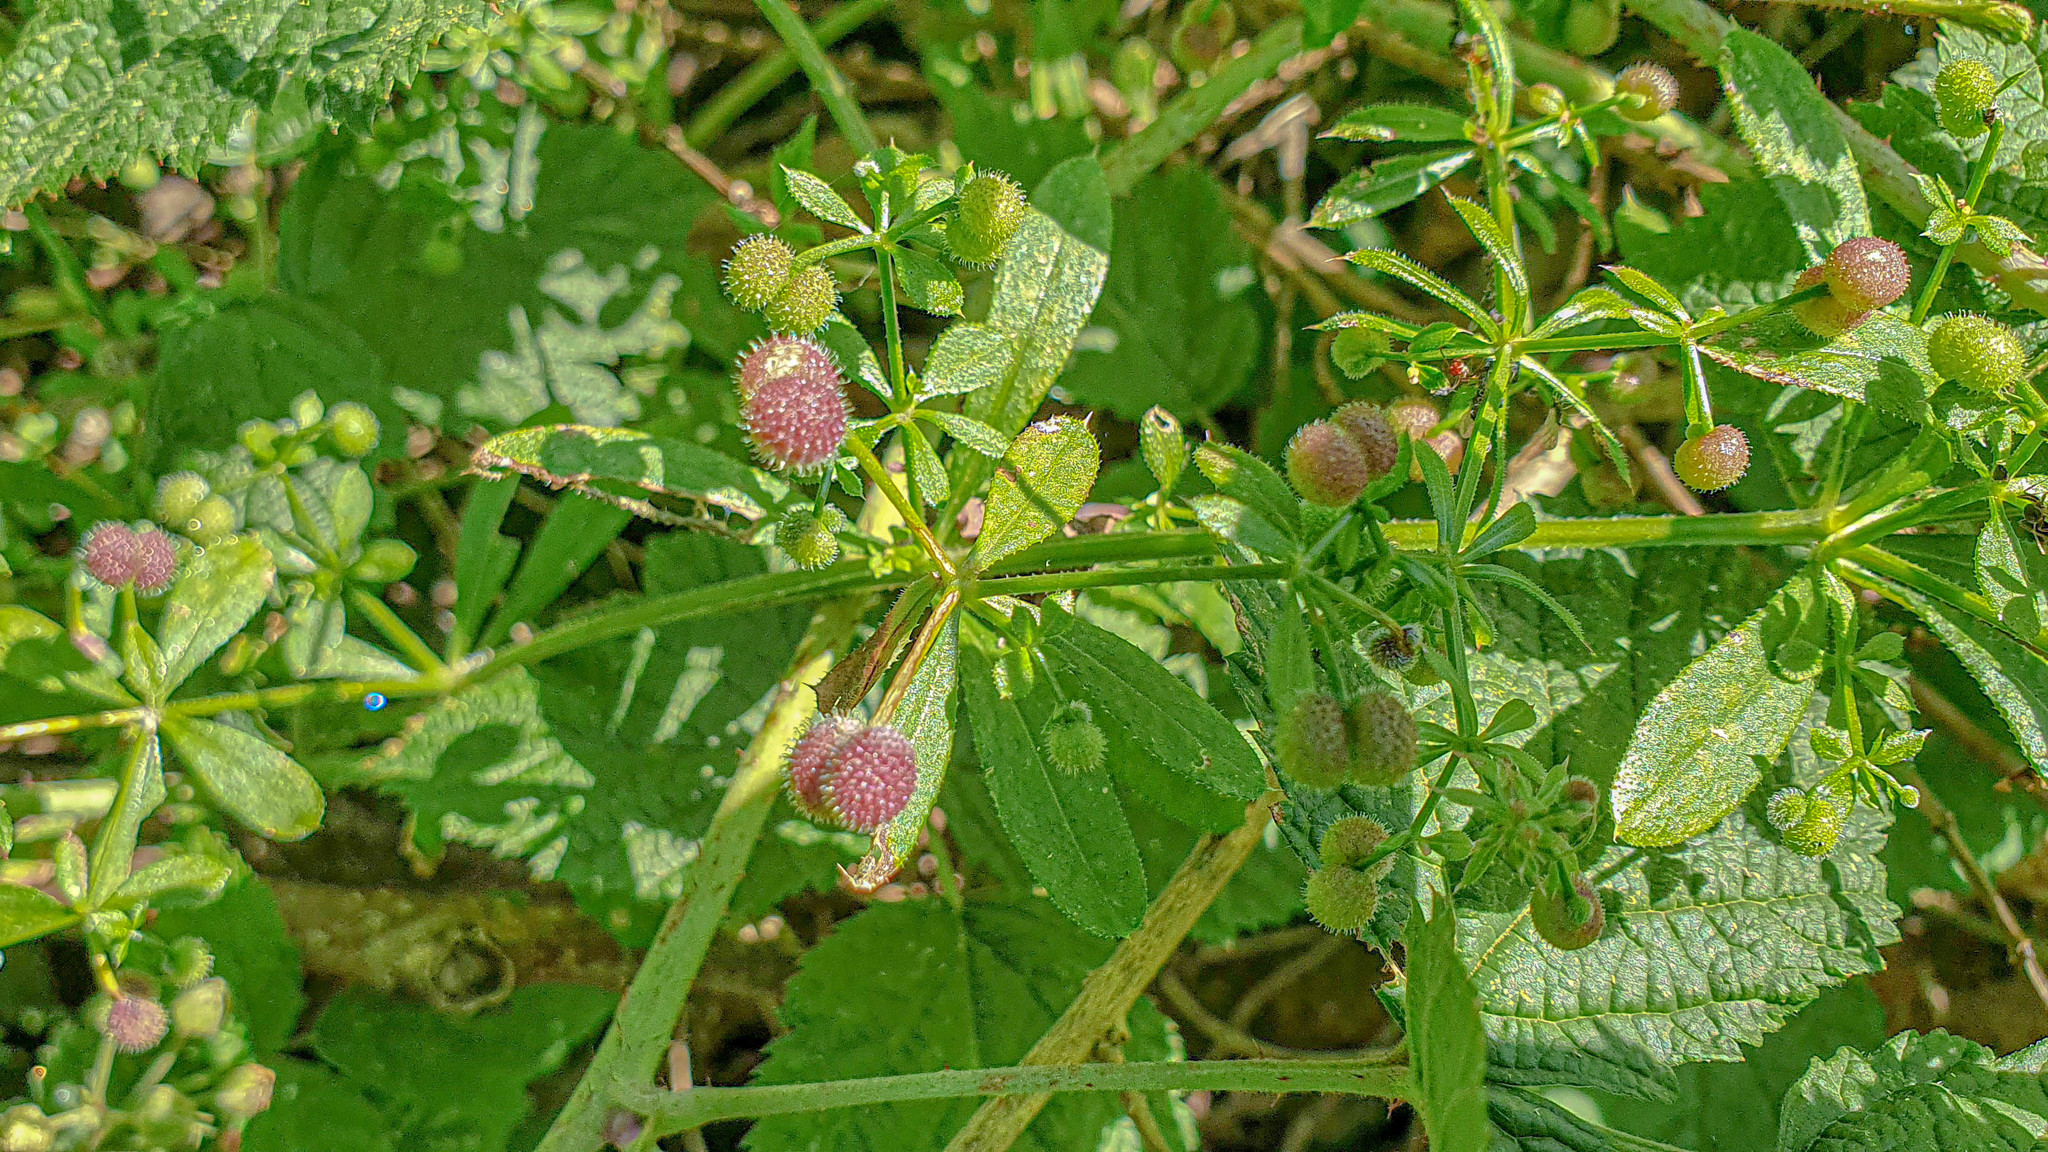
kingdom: Plantae
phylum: Tracheophyta
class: Magnoliopsida
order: Gentianales
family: Rubiaceae
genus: Galium
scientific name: Galium aparine
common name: Cleavers
